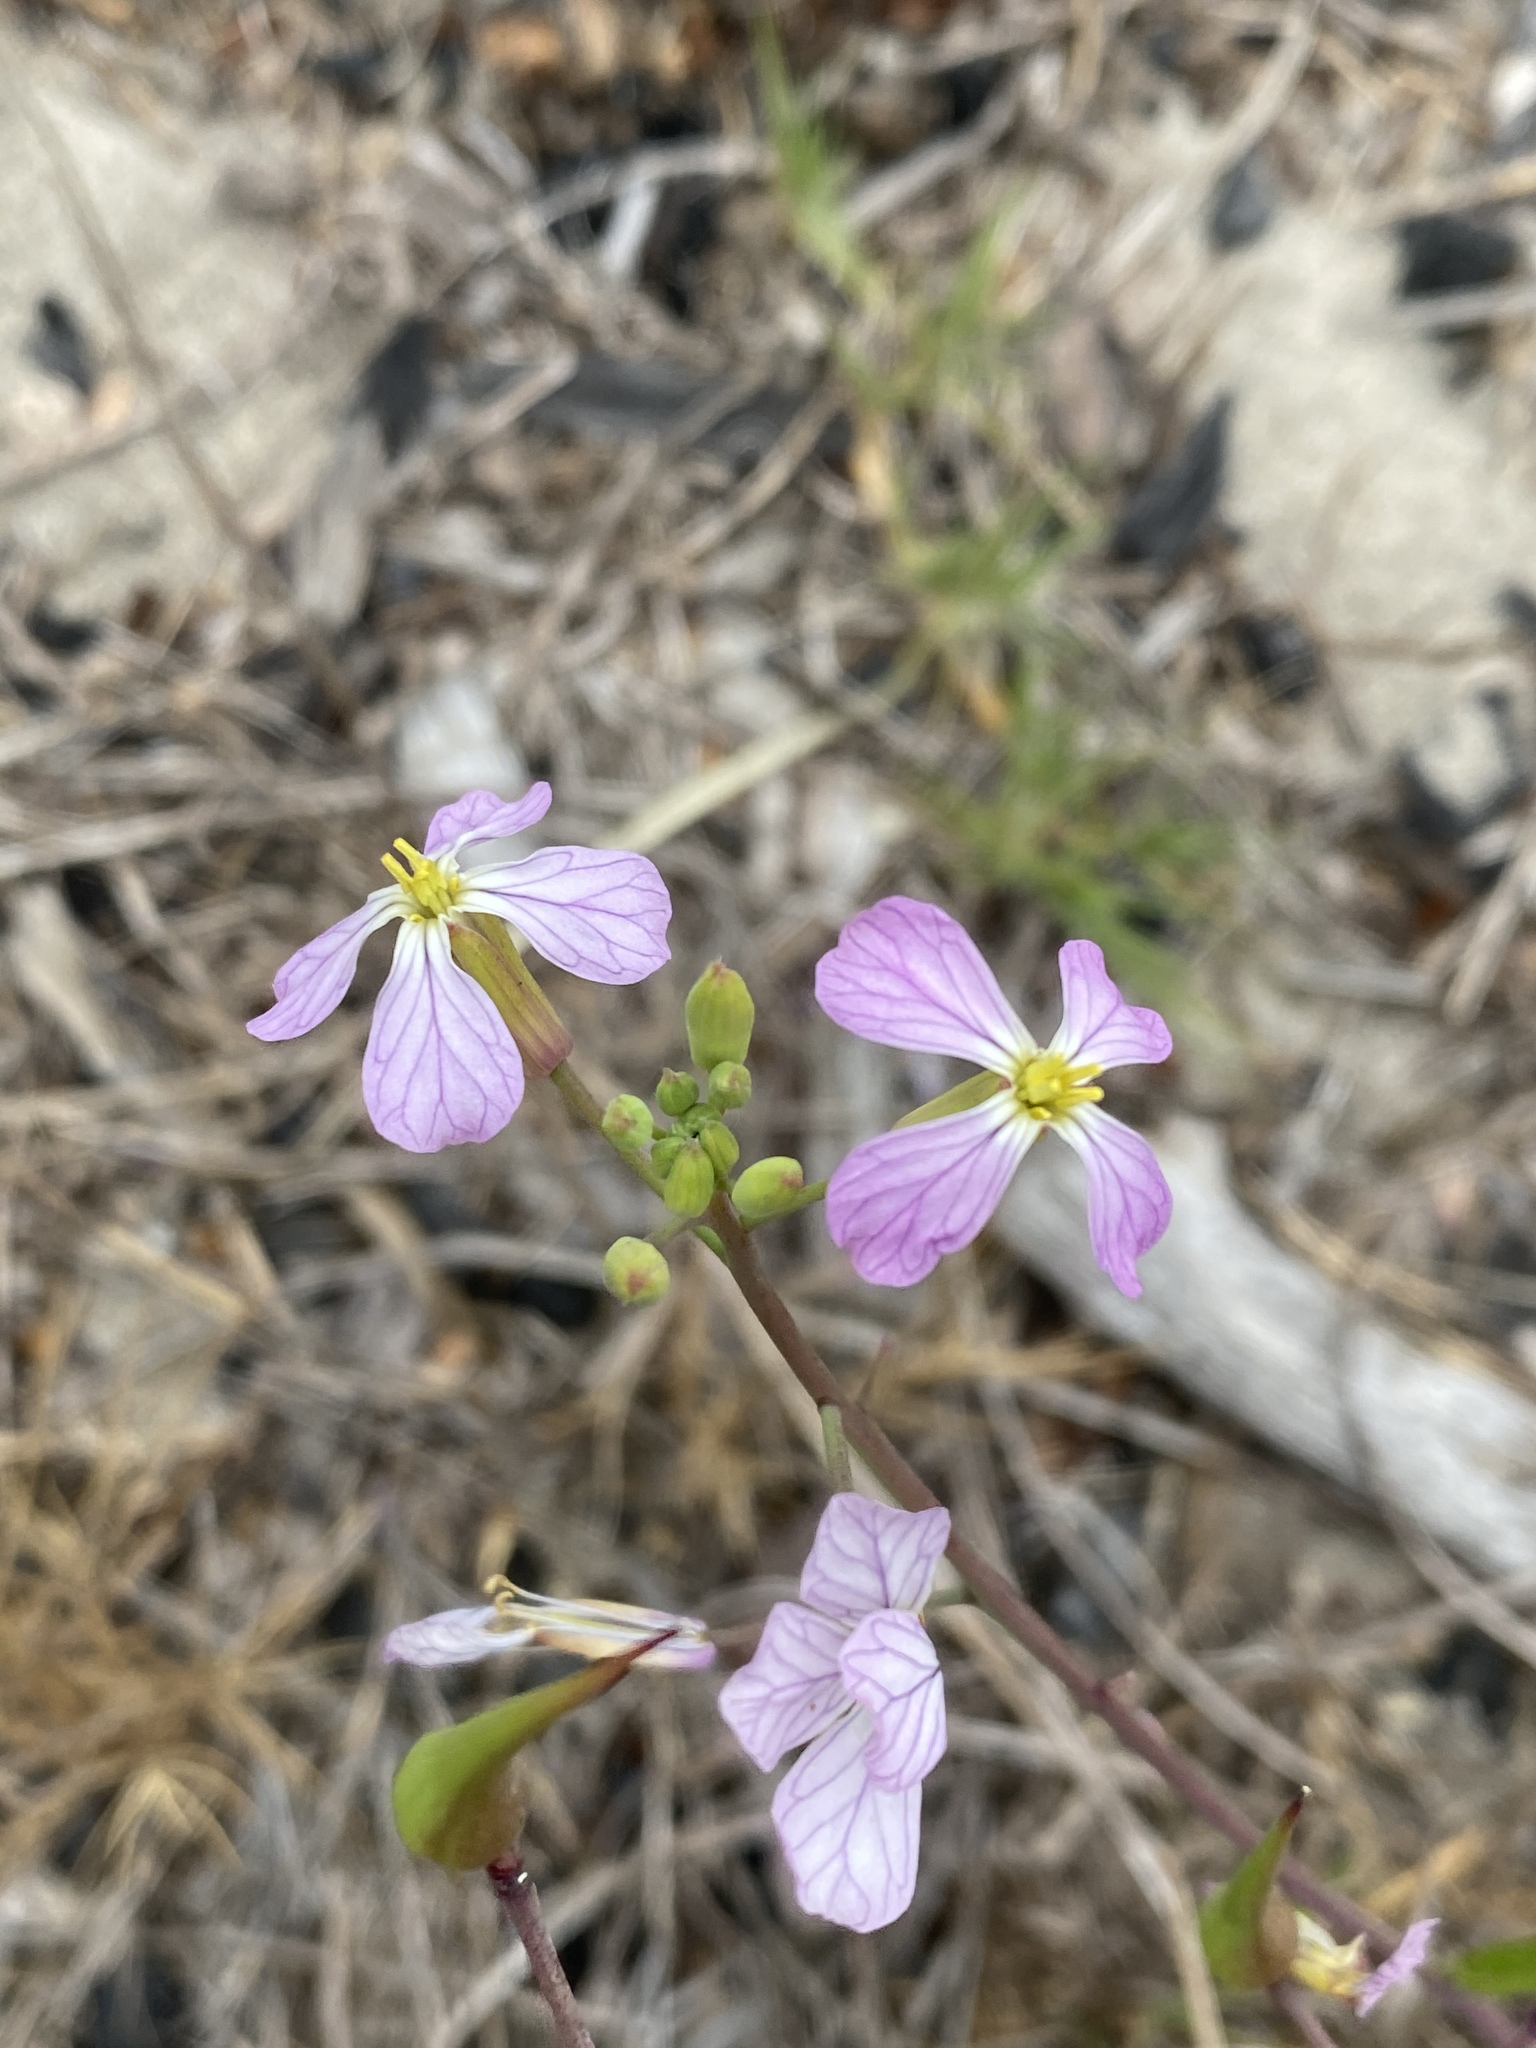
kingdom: Plantae
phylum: Tracheophyta
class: Magnoliopsida
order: Brassicales
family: Brassicaceae
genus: Raphanus
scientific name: Raphanus sativus
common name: Cultivated radish
